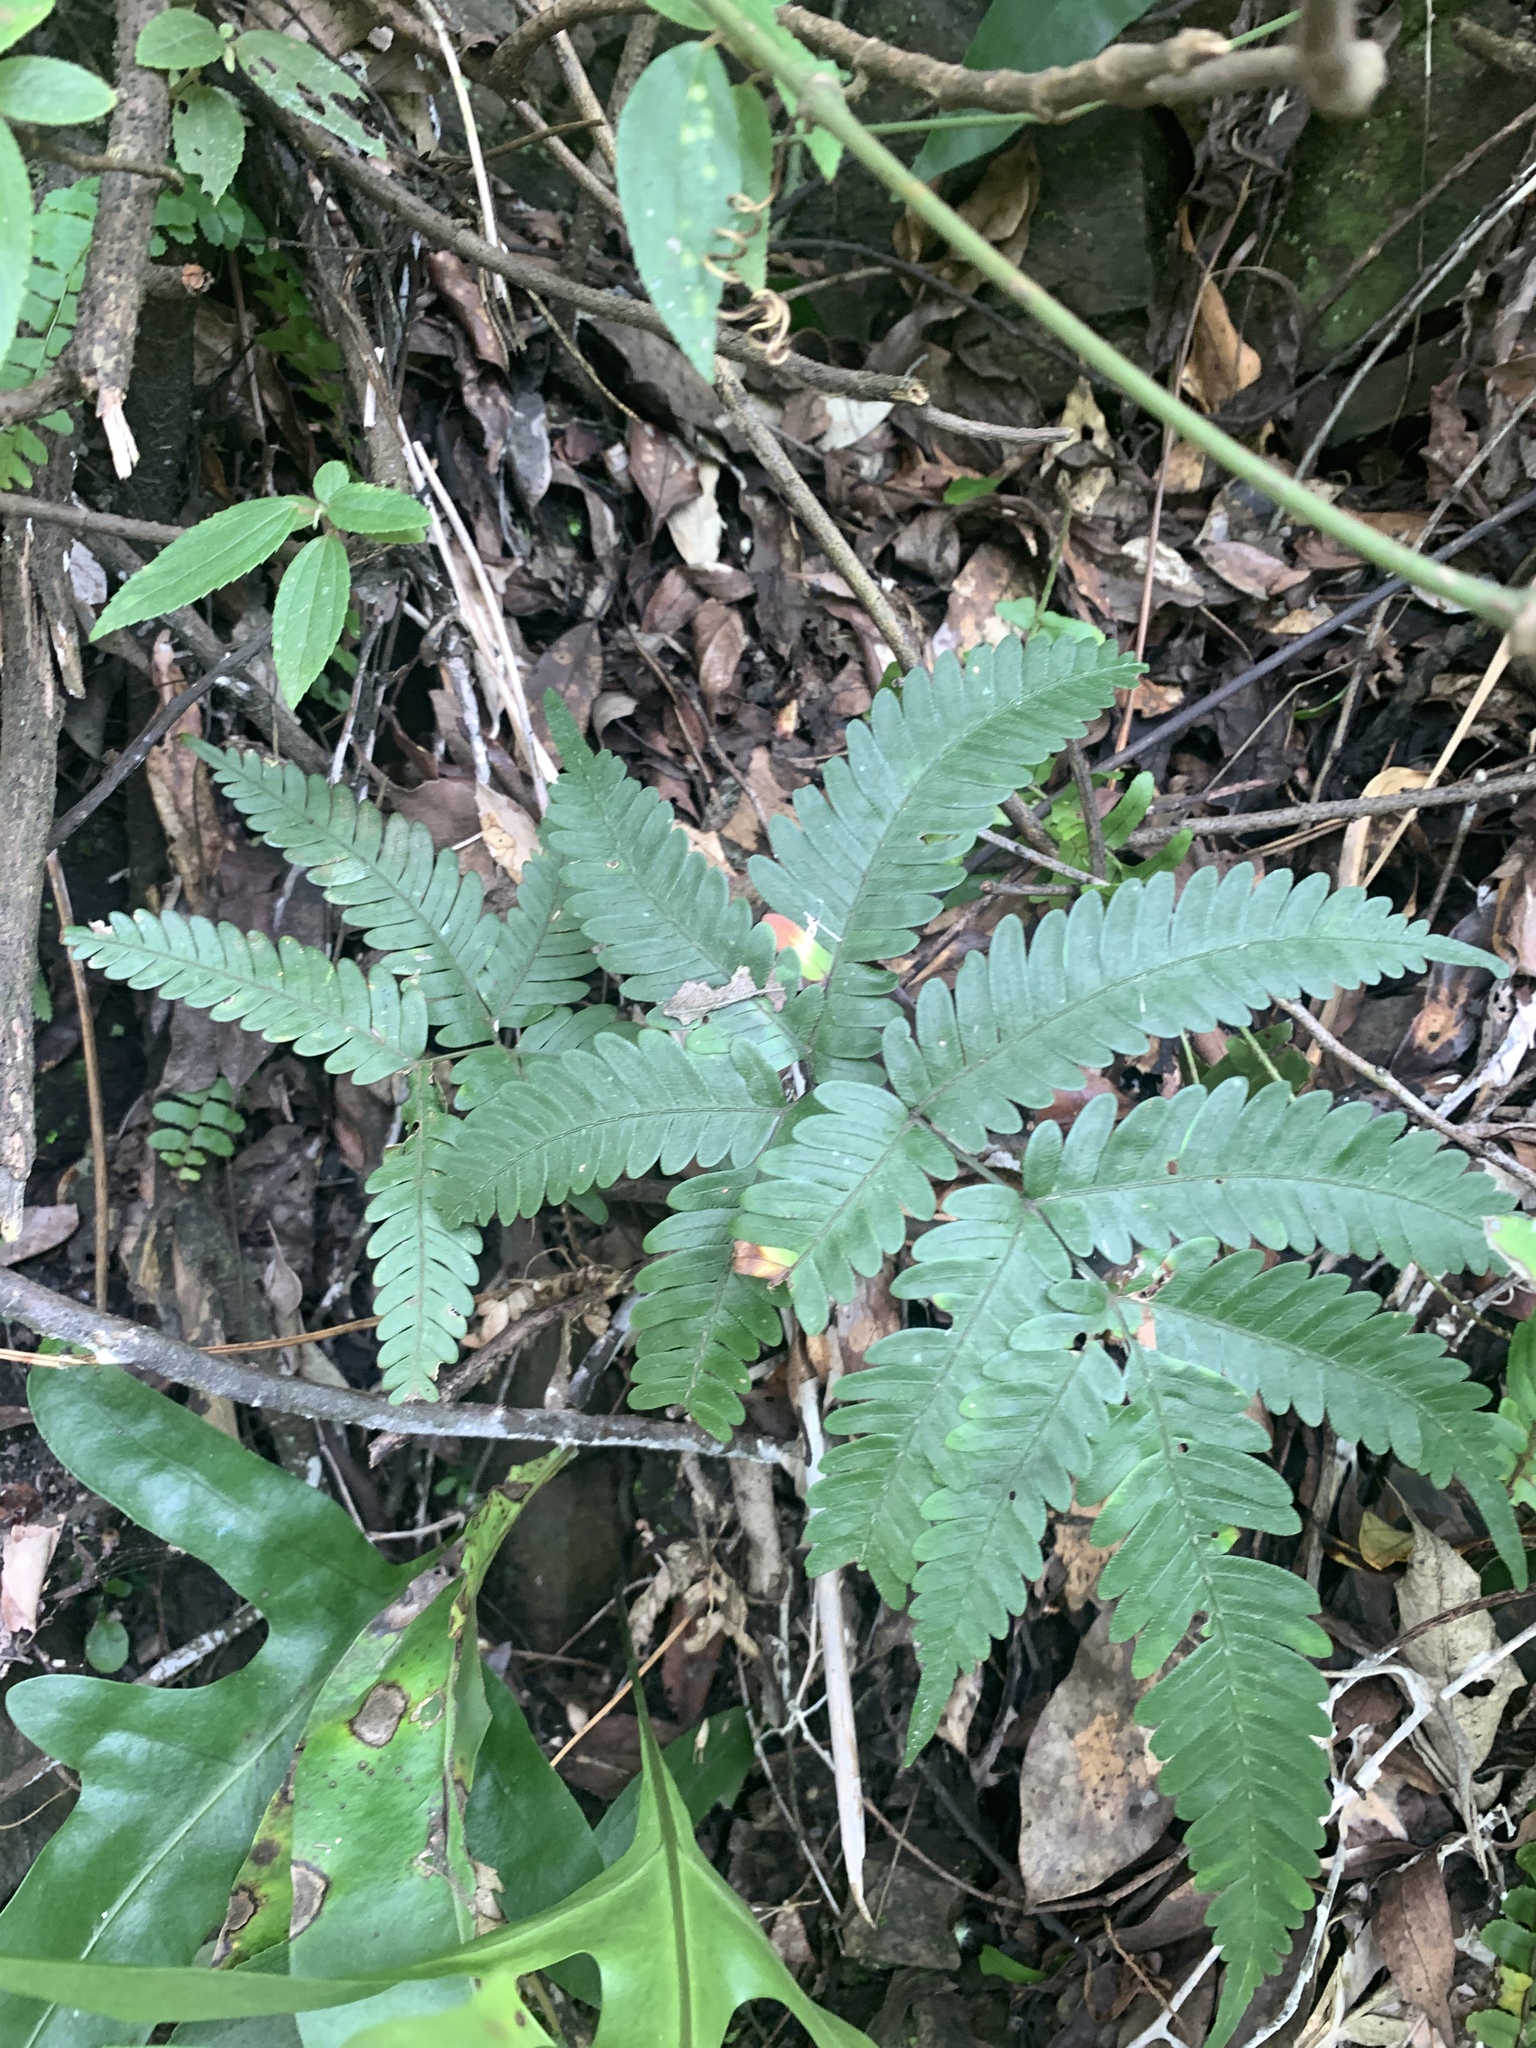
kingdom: Plantae
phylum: Tracheophyta
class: Polypodiopsida
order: Polypodiales
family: Pteridaceae
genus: Pteris
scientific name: Pteris fauriei
